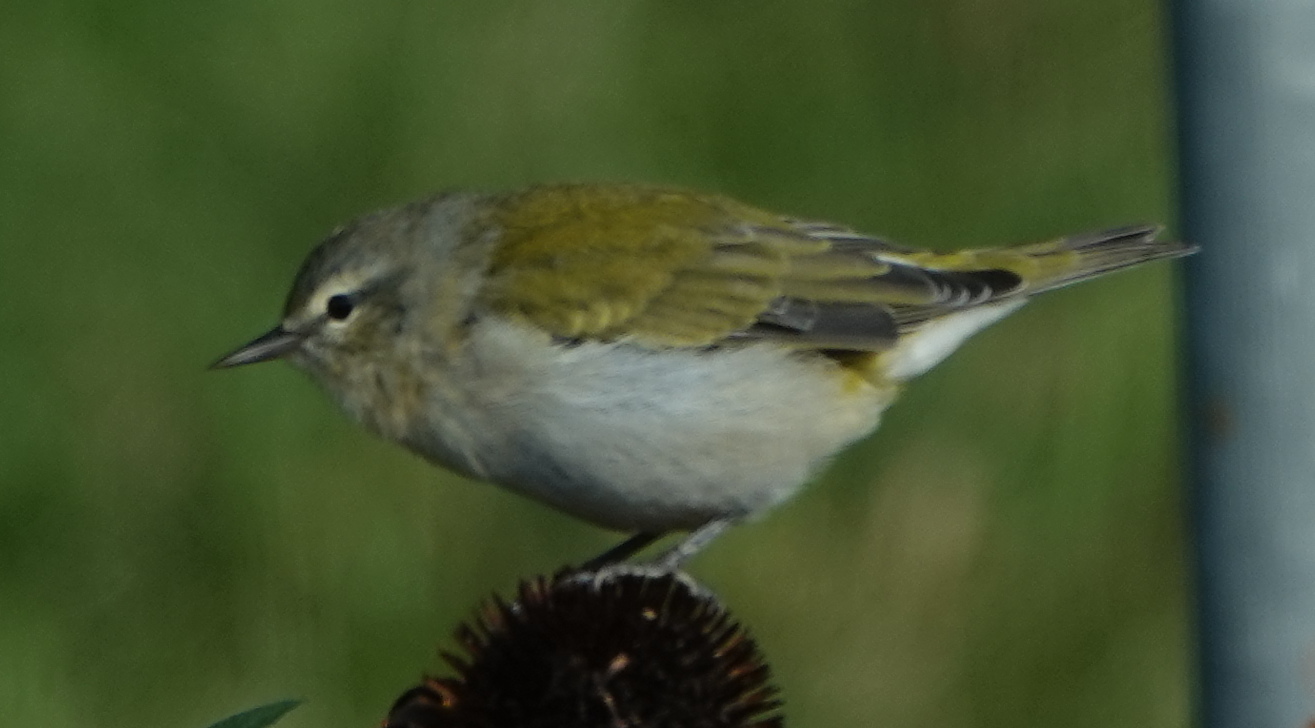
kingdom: Animalia
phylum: Chordata
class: Aves
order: Passeriformes
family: Parulidae
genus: Leiothlypis
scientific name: Leiothlypis peregrina
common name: Tennessee warbler
